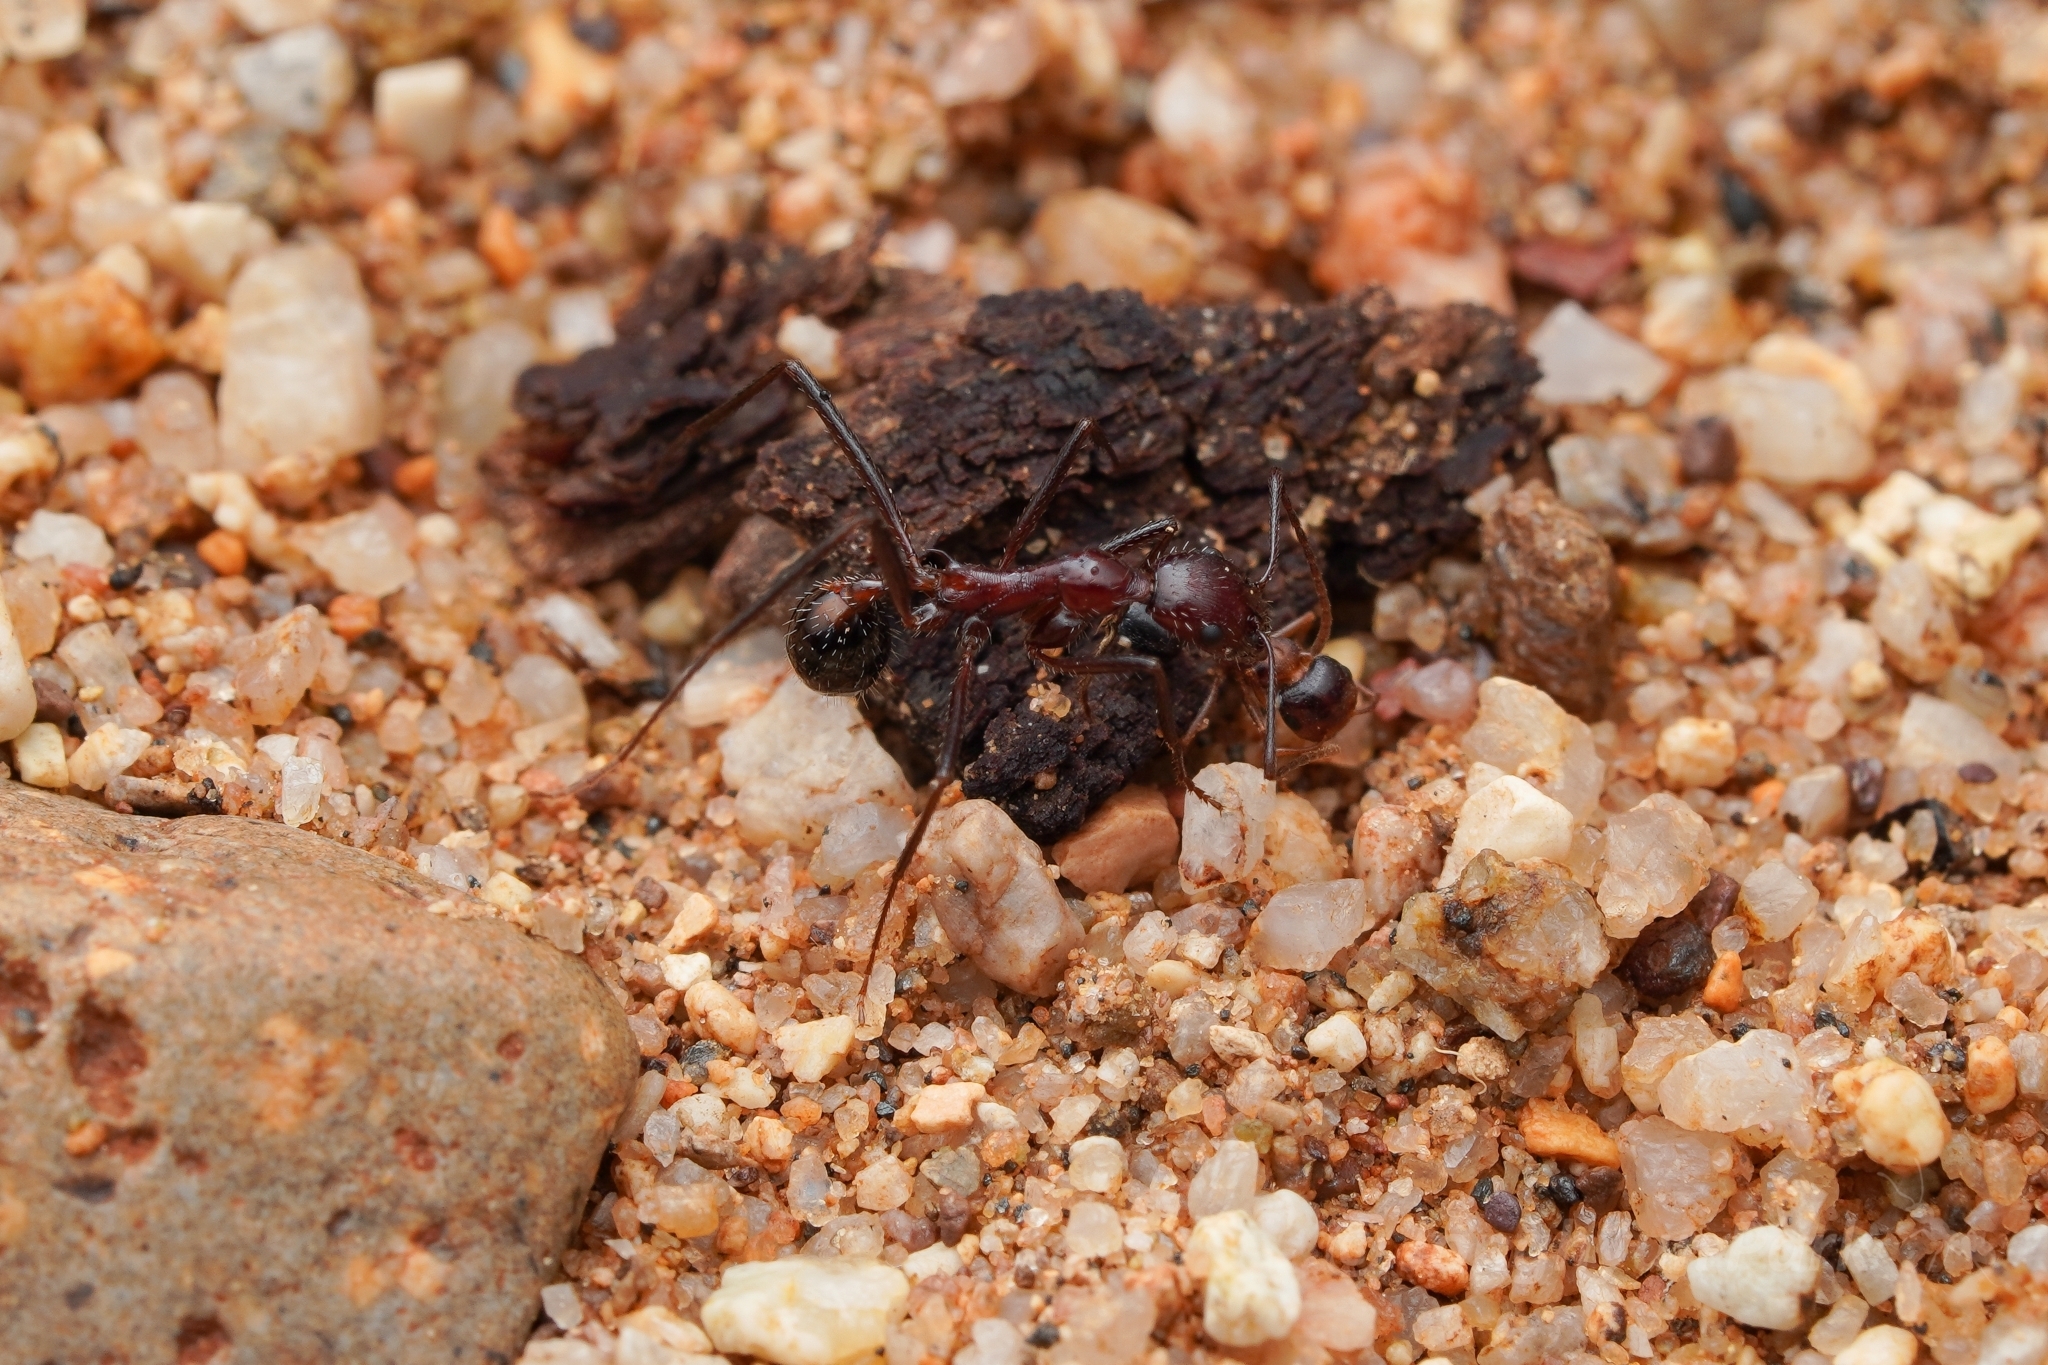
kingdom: Animalia
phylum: Arthropoda
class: Insecta
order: Hymenoptera
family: Formicidae
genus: Novomessor
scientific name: Novomessor cockerelli
